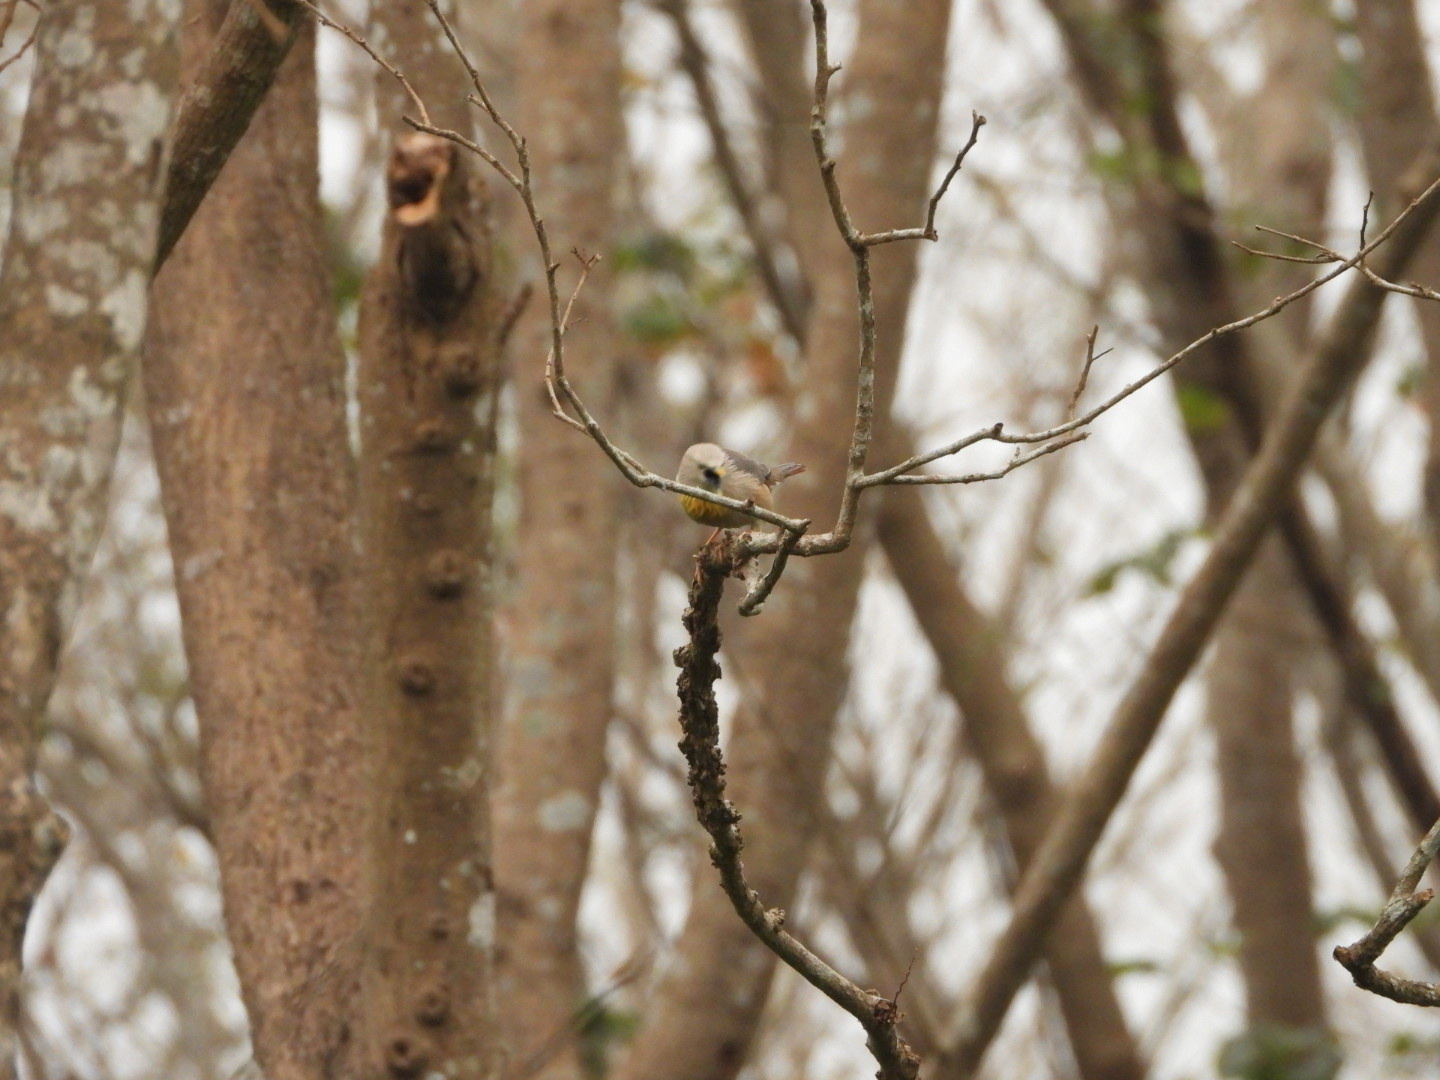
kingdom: Animalia
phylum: Chordata
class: Aves
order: Passeriformes
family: Sturnidae
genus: Sturnia
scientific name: Sturnia malabarica
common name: Chestnut-tailed starling
